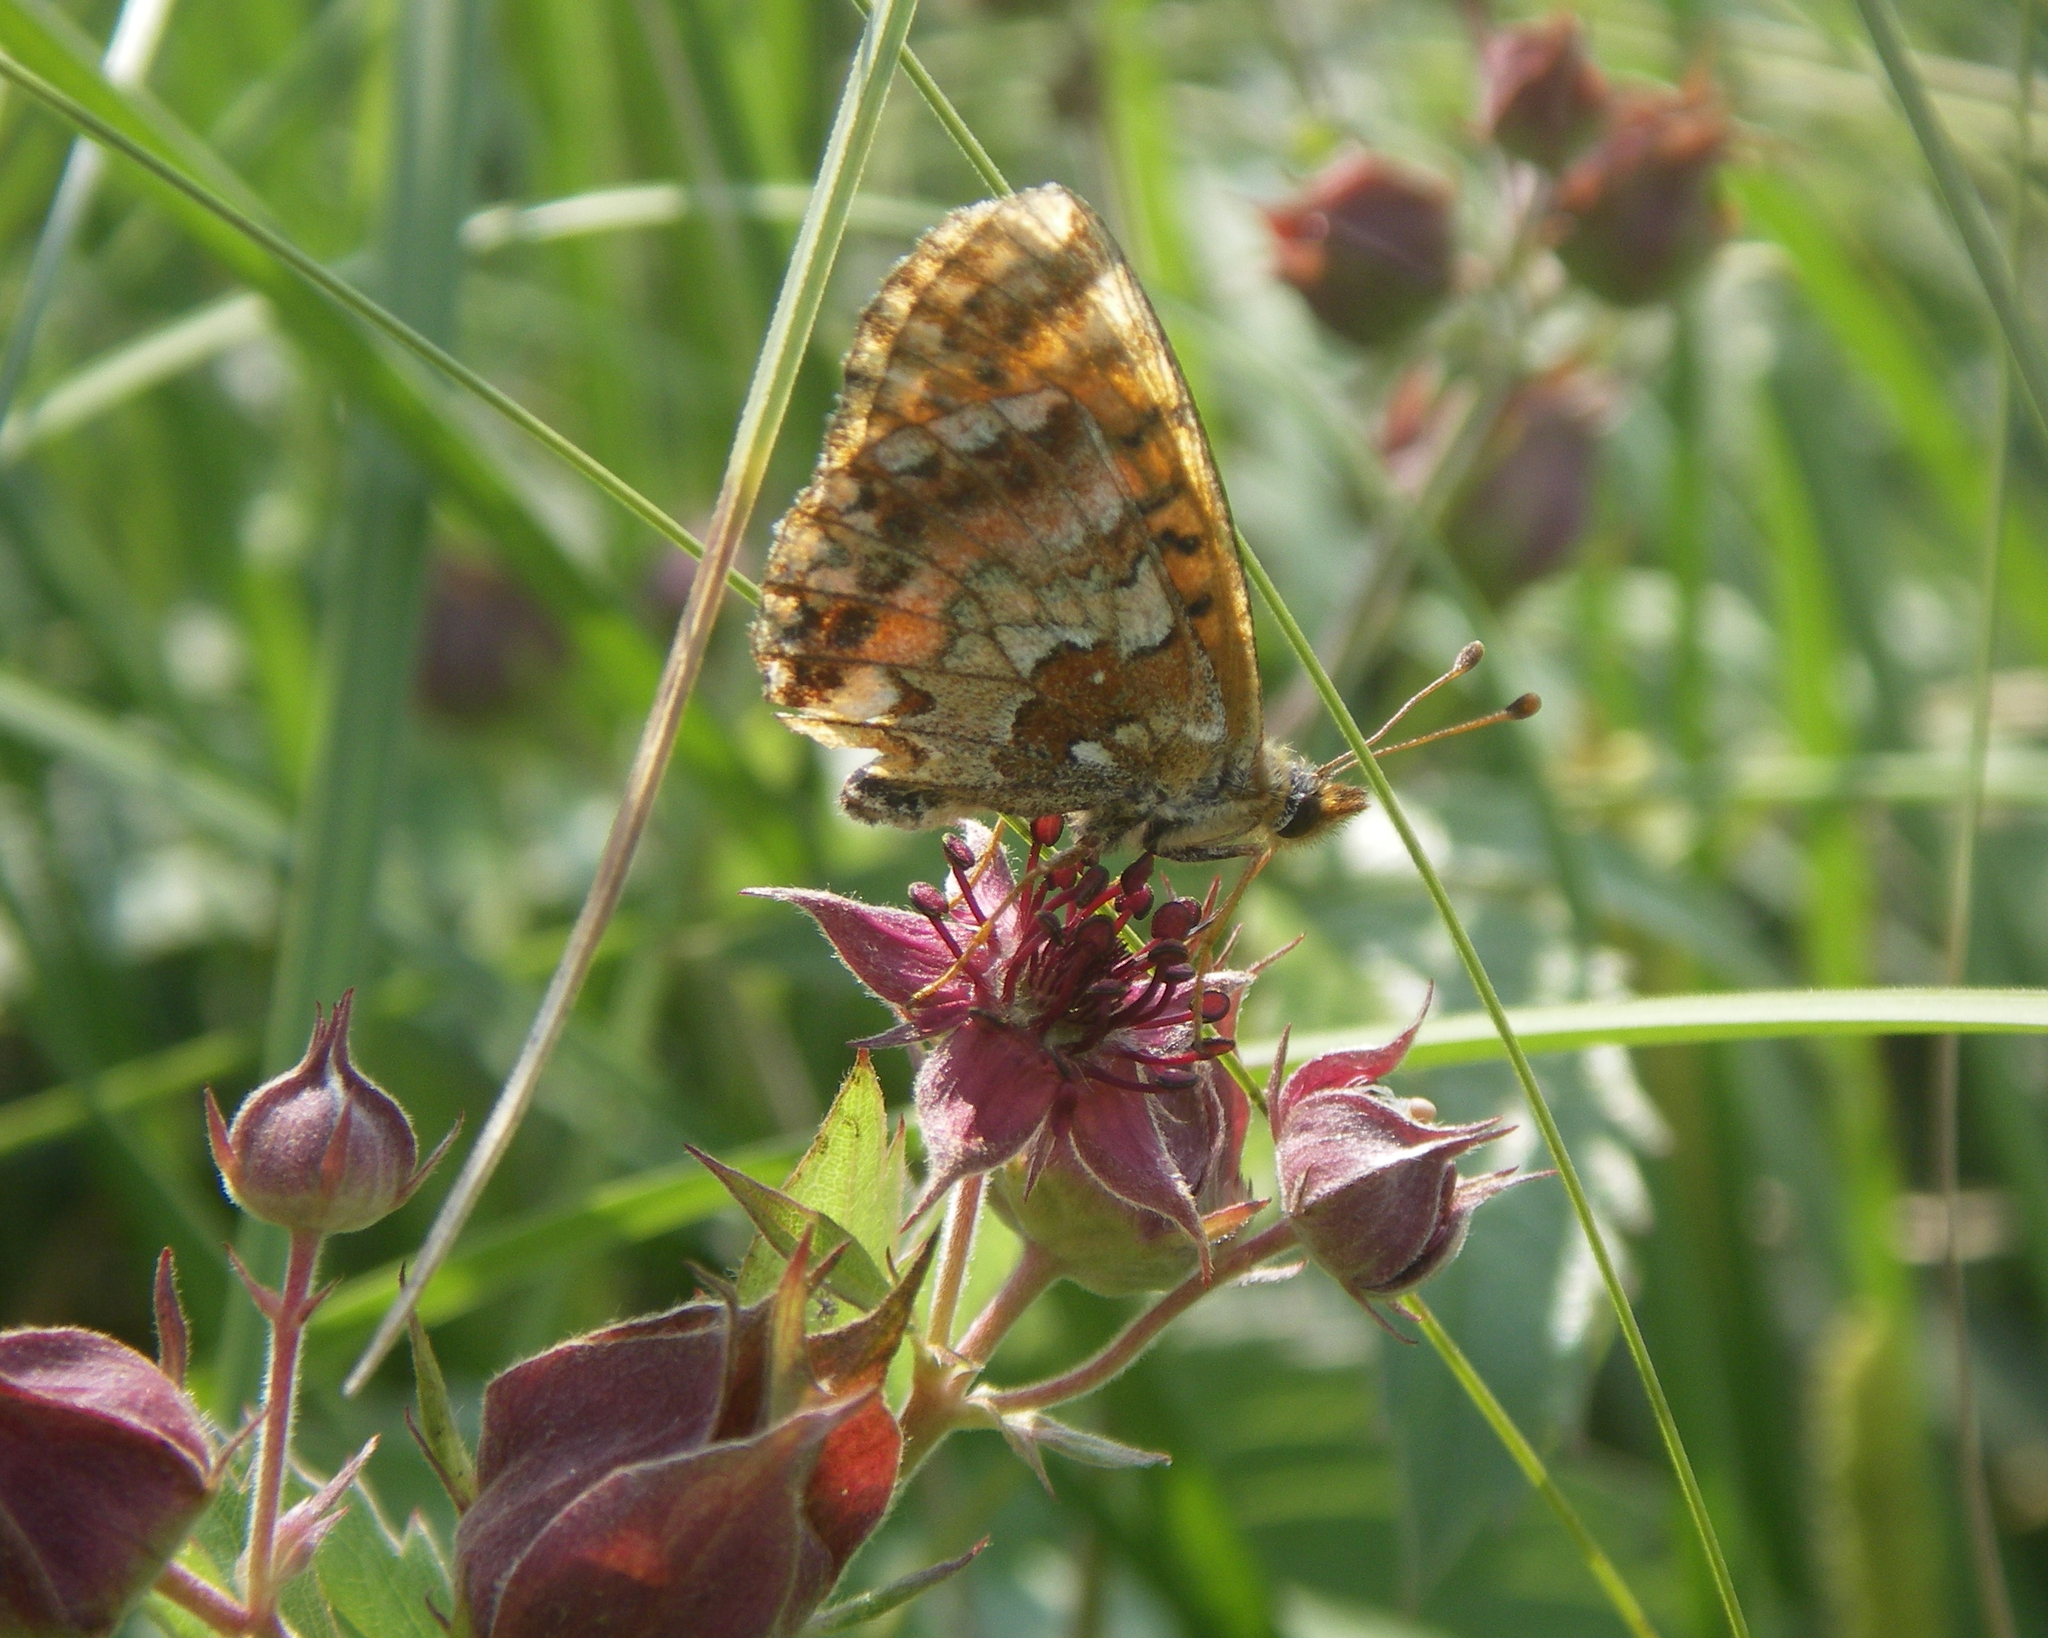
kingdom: Animalia
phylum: Arthropoda
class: Insecta
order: Lepidoptera
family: Nymphalidae
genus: Boloria
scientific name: Boloria aquilonaris
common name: Cranberry fritillary
